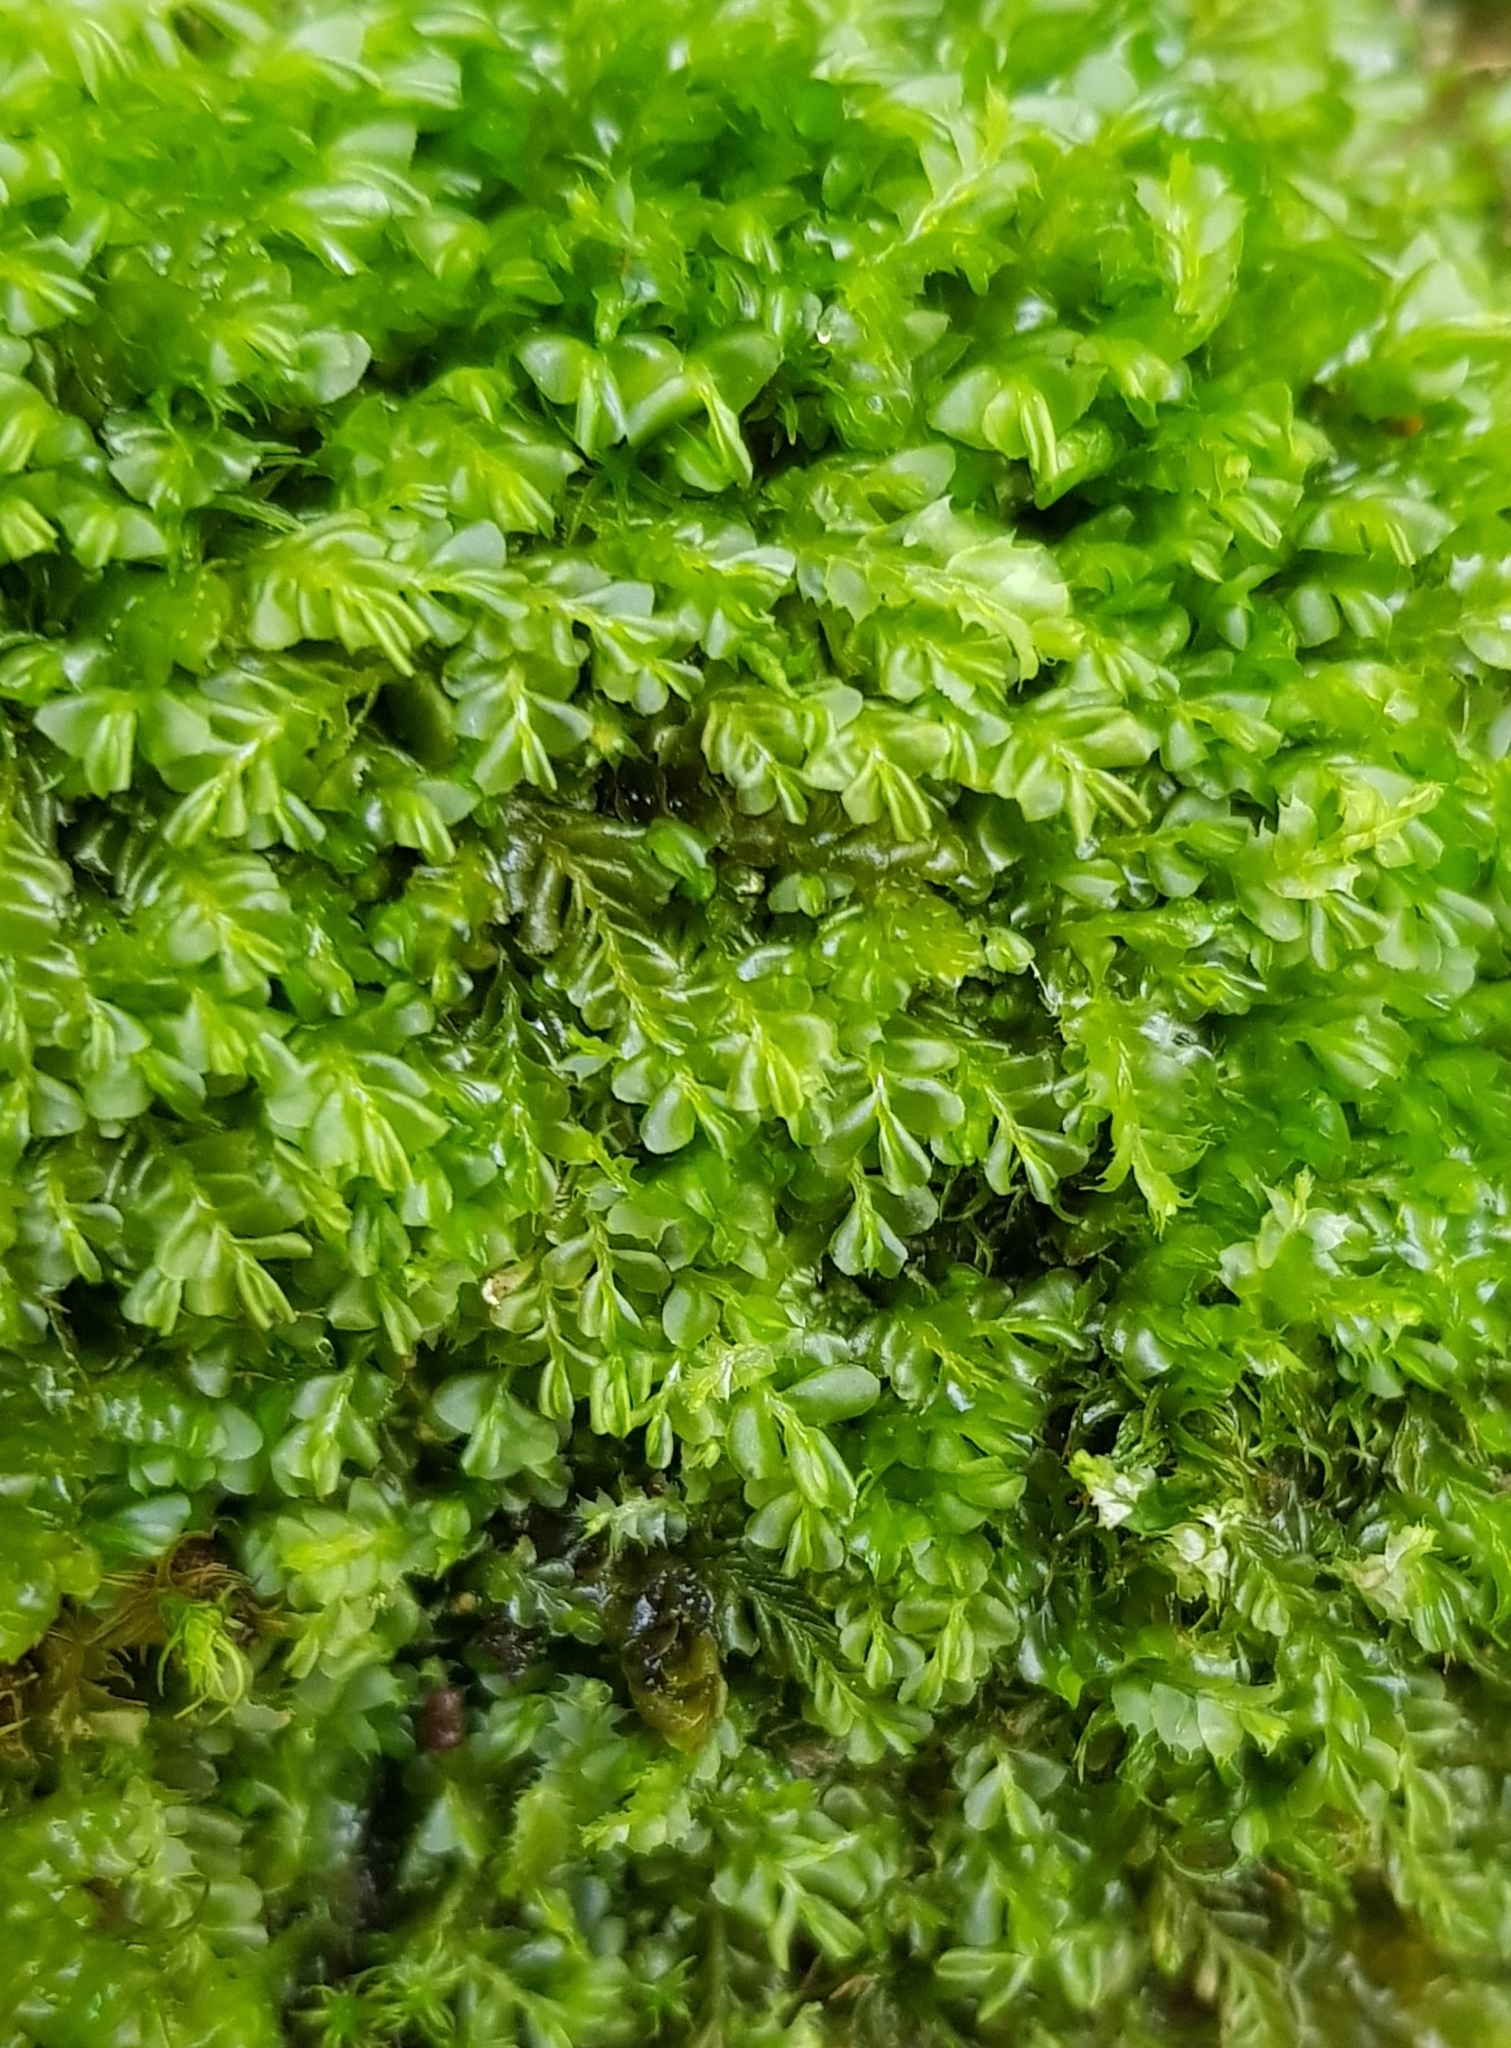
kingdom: Plantae
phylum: Marchantiophyta
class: Jungermanniopsida
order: Jungermanniales
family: Plagiochilaceae
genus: Plagiochila
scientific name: Plagiochila porelloides
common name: Lesser featherwort
